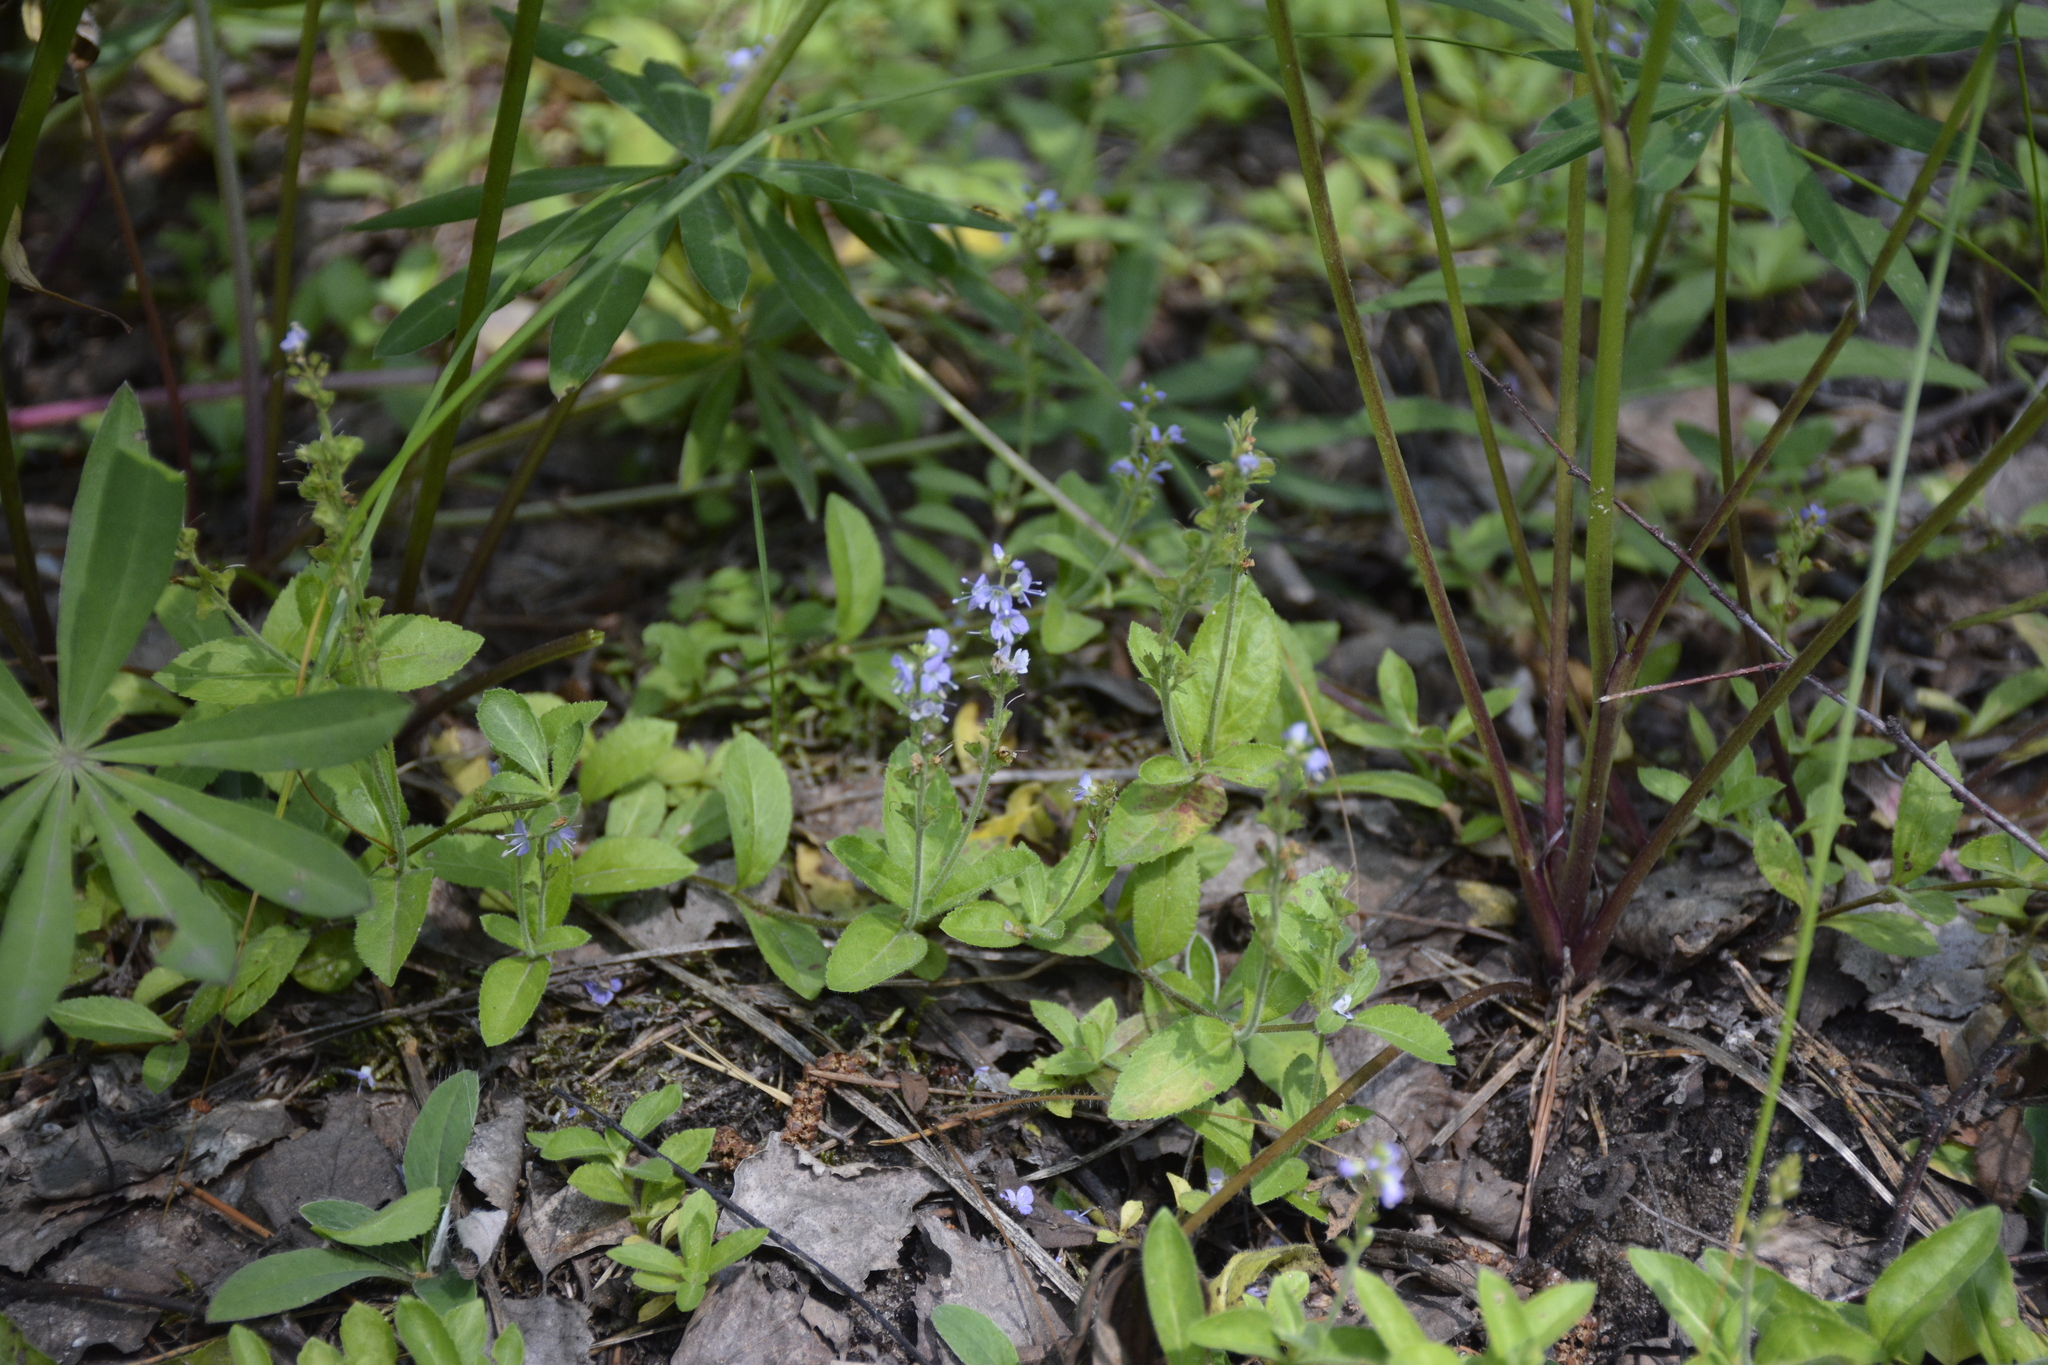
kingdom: Plantae
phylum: Tracheophyta
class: Magnoliopsida
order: Lamiales
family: Plantaginaceae
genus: Veronica
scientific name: Veronica officinalis
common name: Common speedwell
